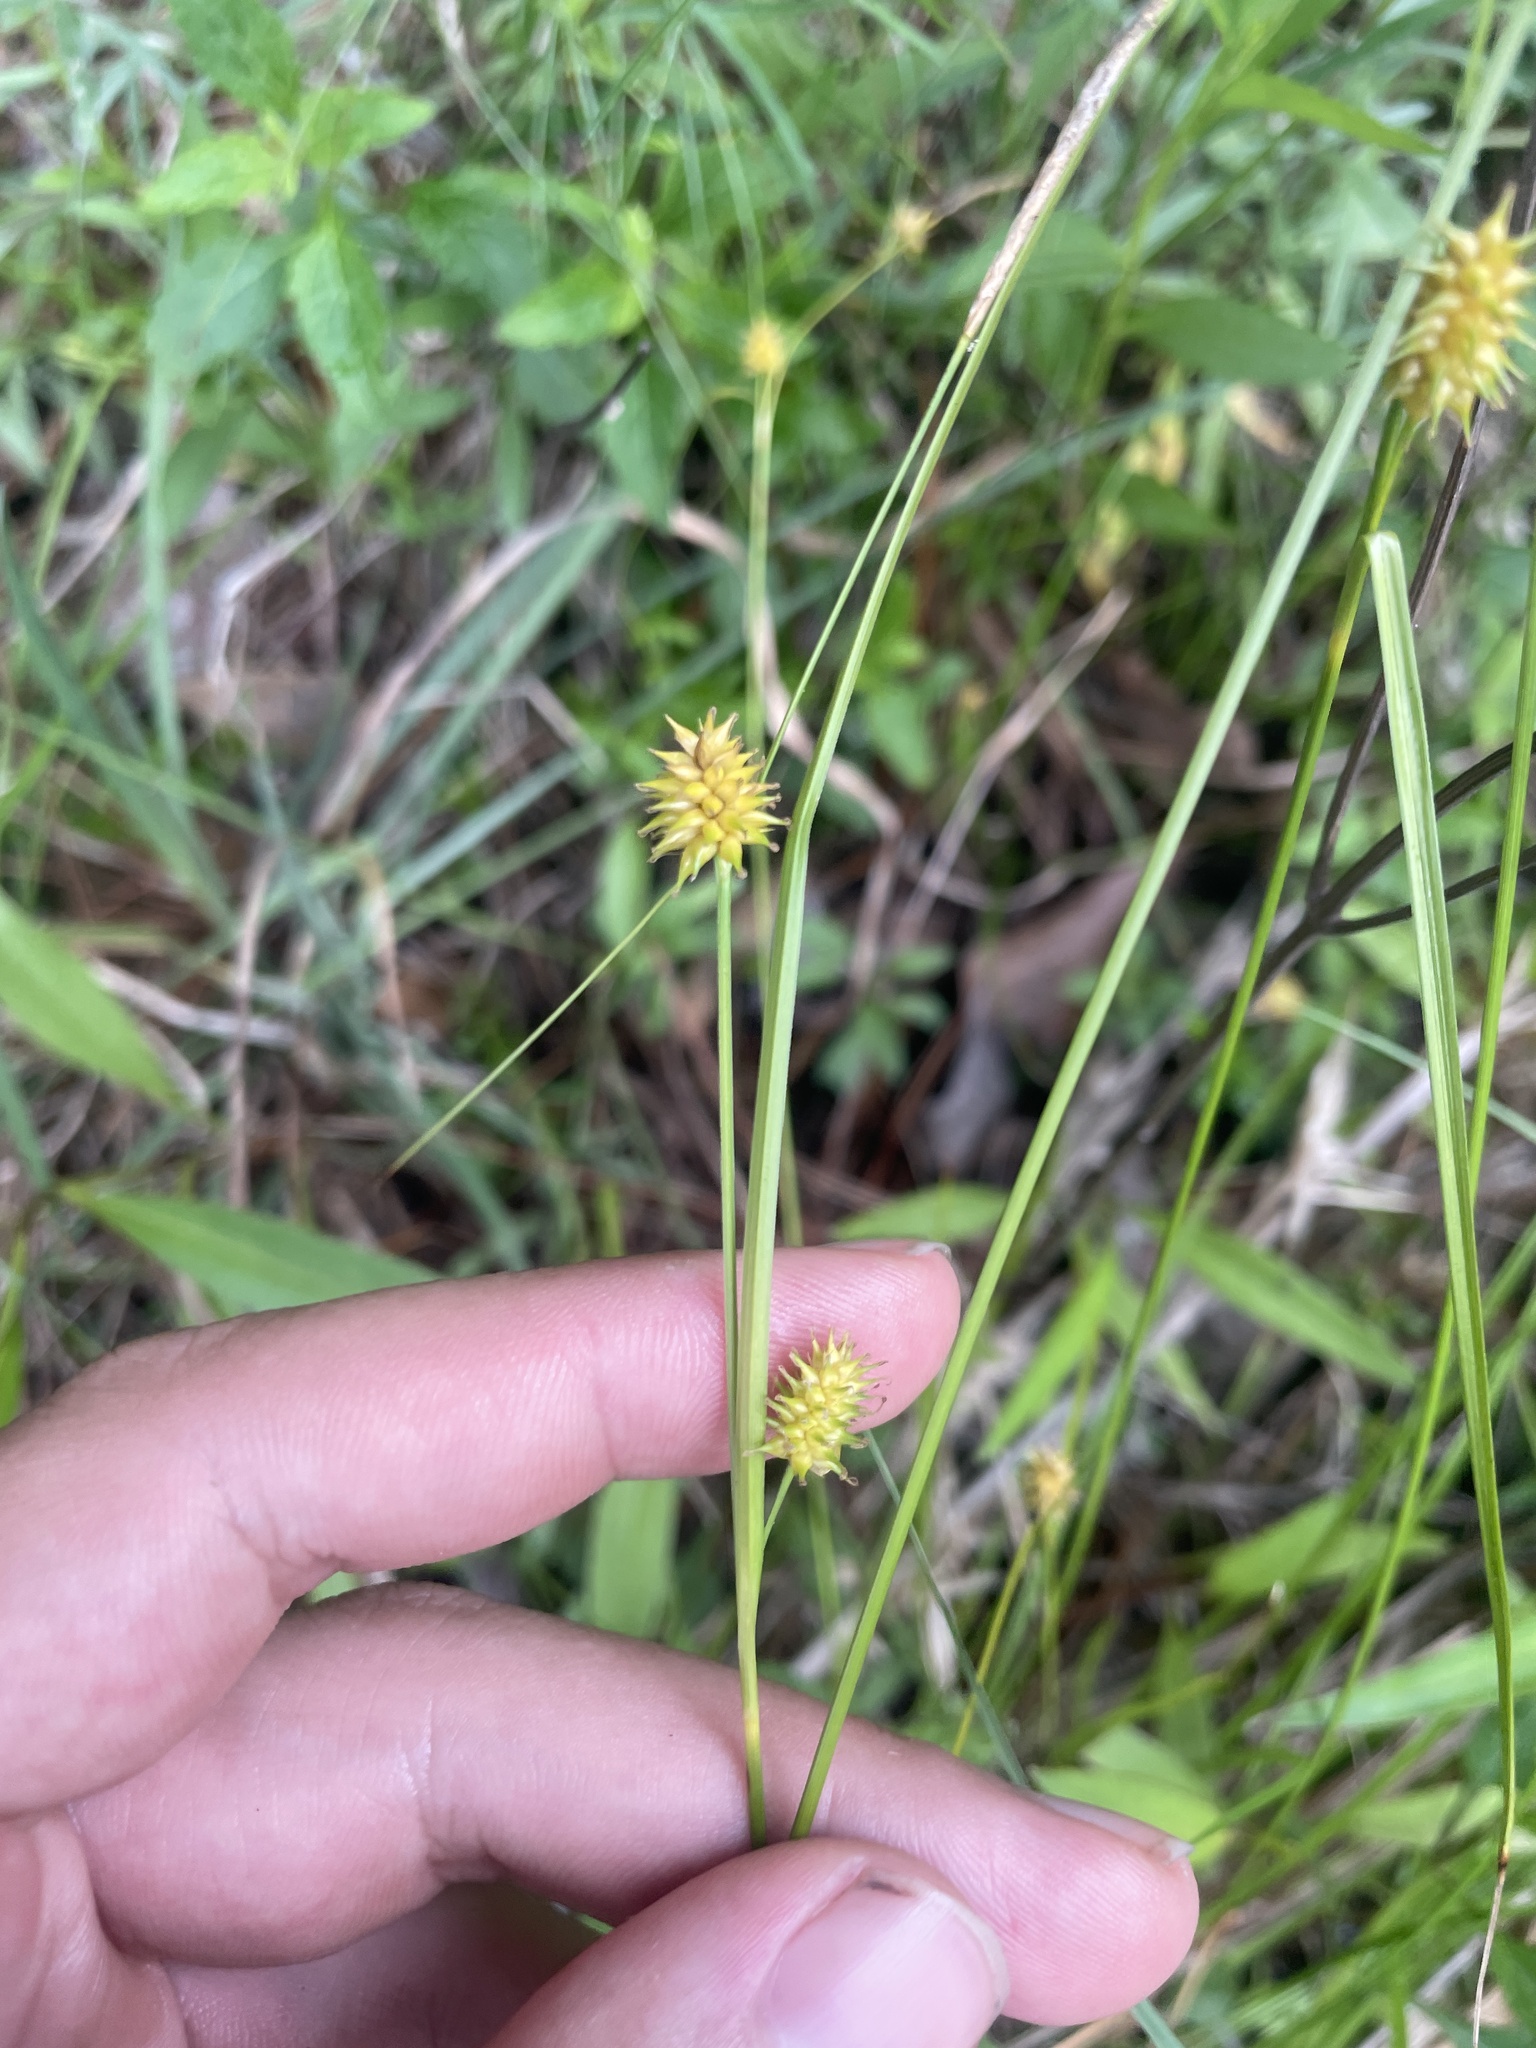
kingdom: Plantae
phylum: Tracheophyta
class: Liliopsida
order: Poales
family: Cyperaceae
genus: Carex
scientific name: Carex lutea
